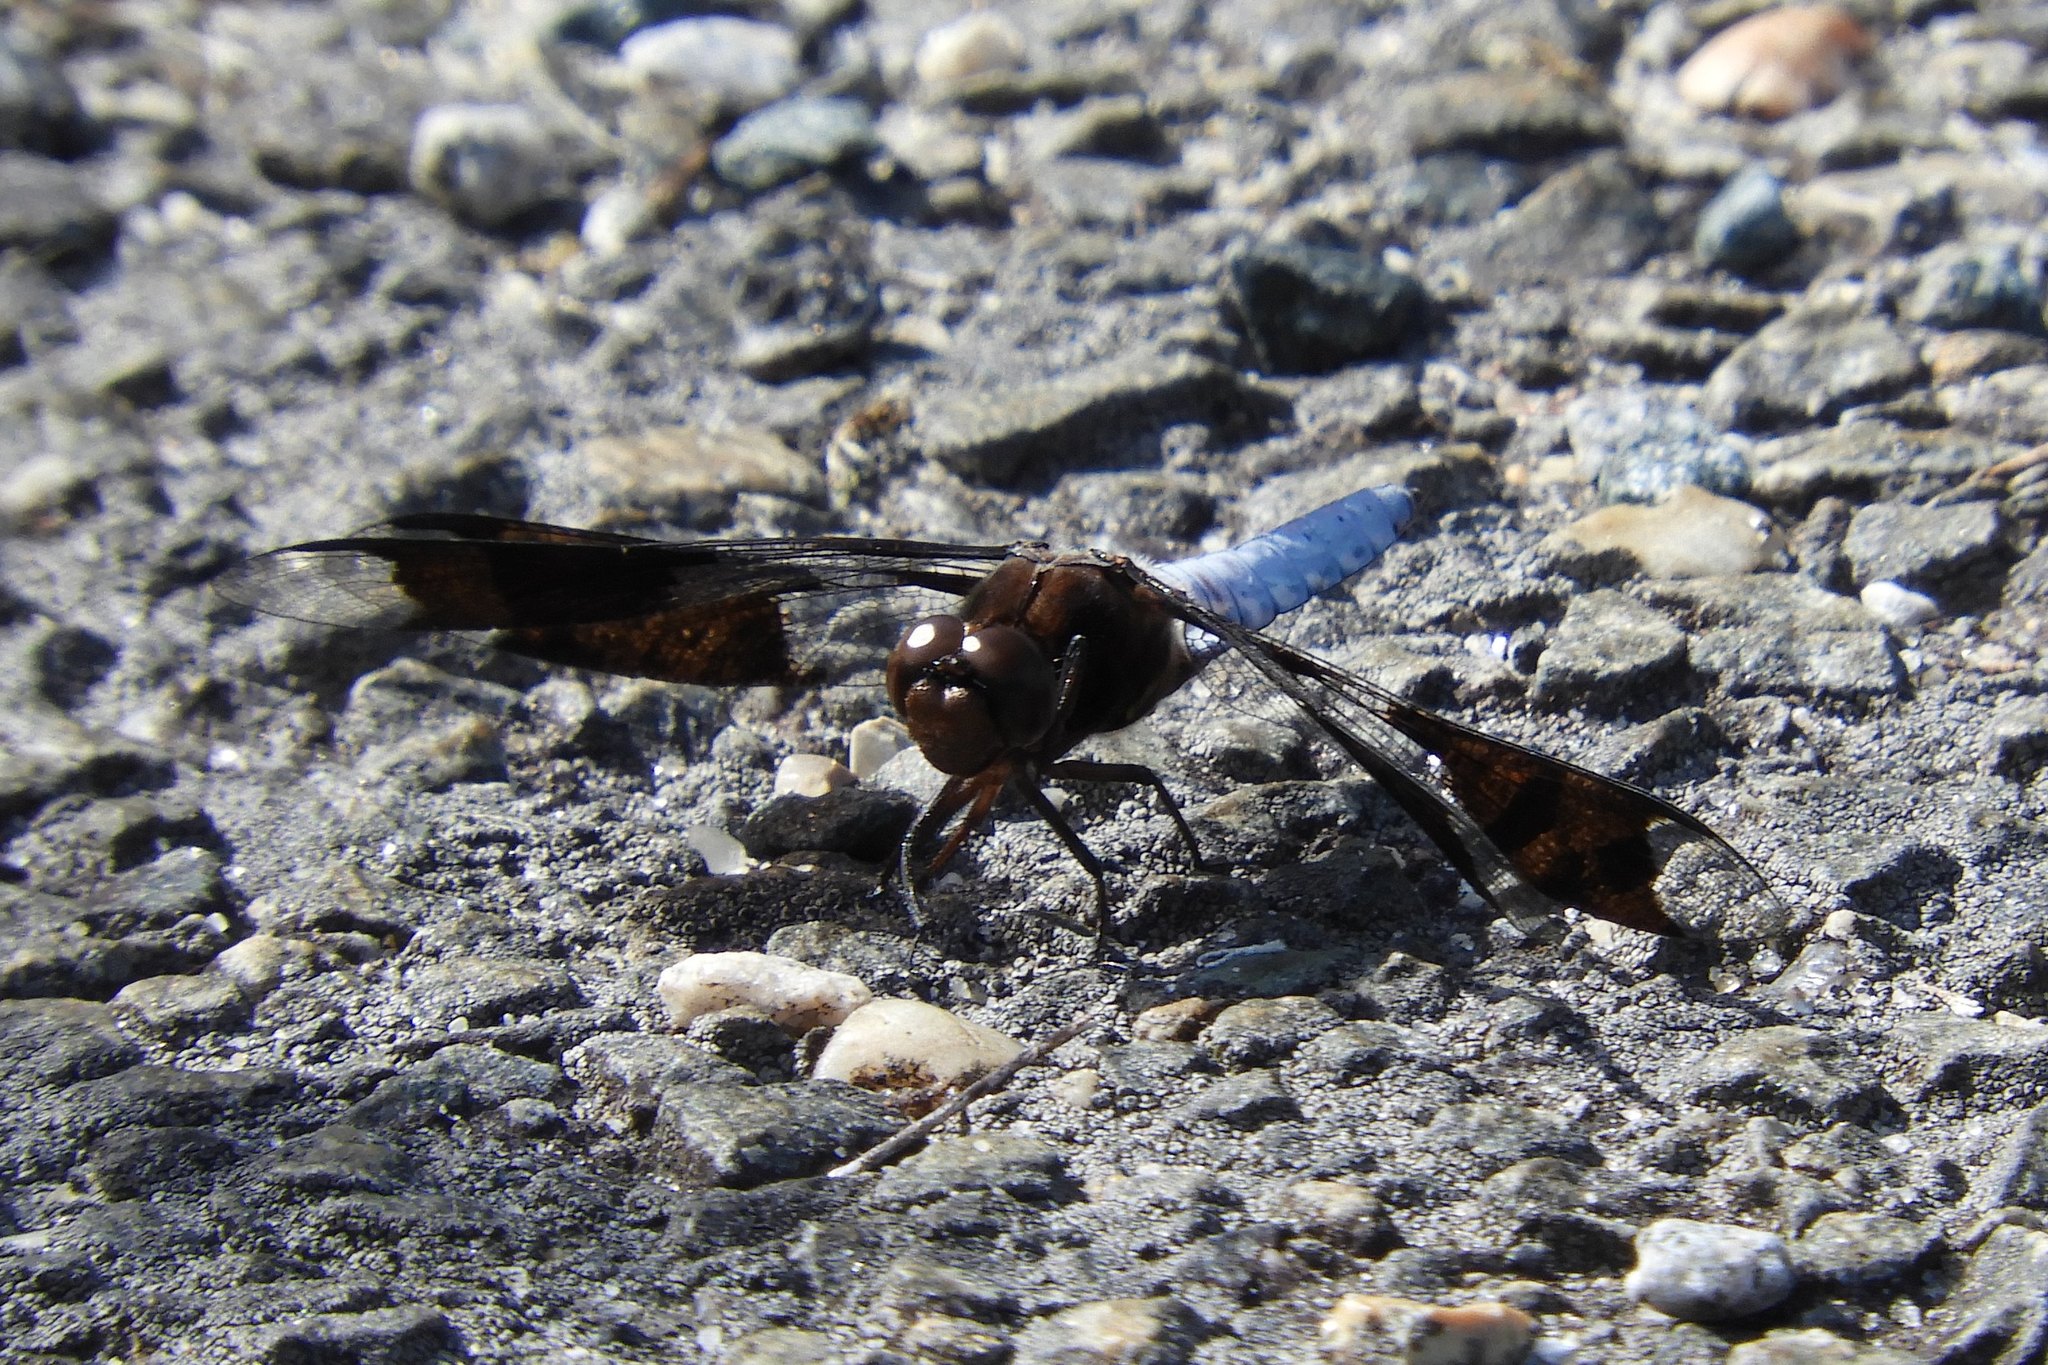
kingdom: Animalia
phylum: Arthropoda
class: Insecta
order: Odonata
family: Libellulidae
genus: Plathemis
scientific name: Plathemis lydia
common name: Common whitetail
